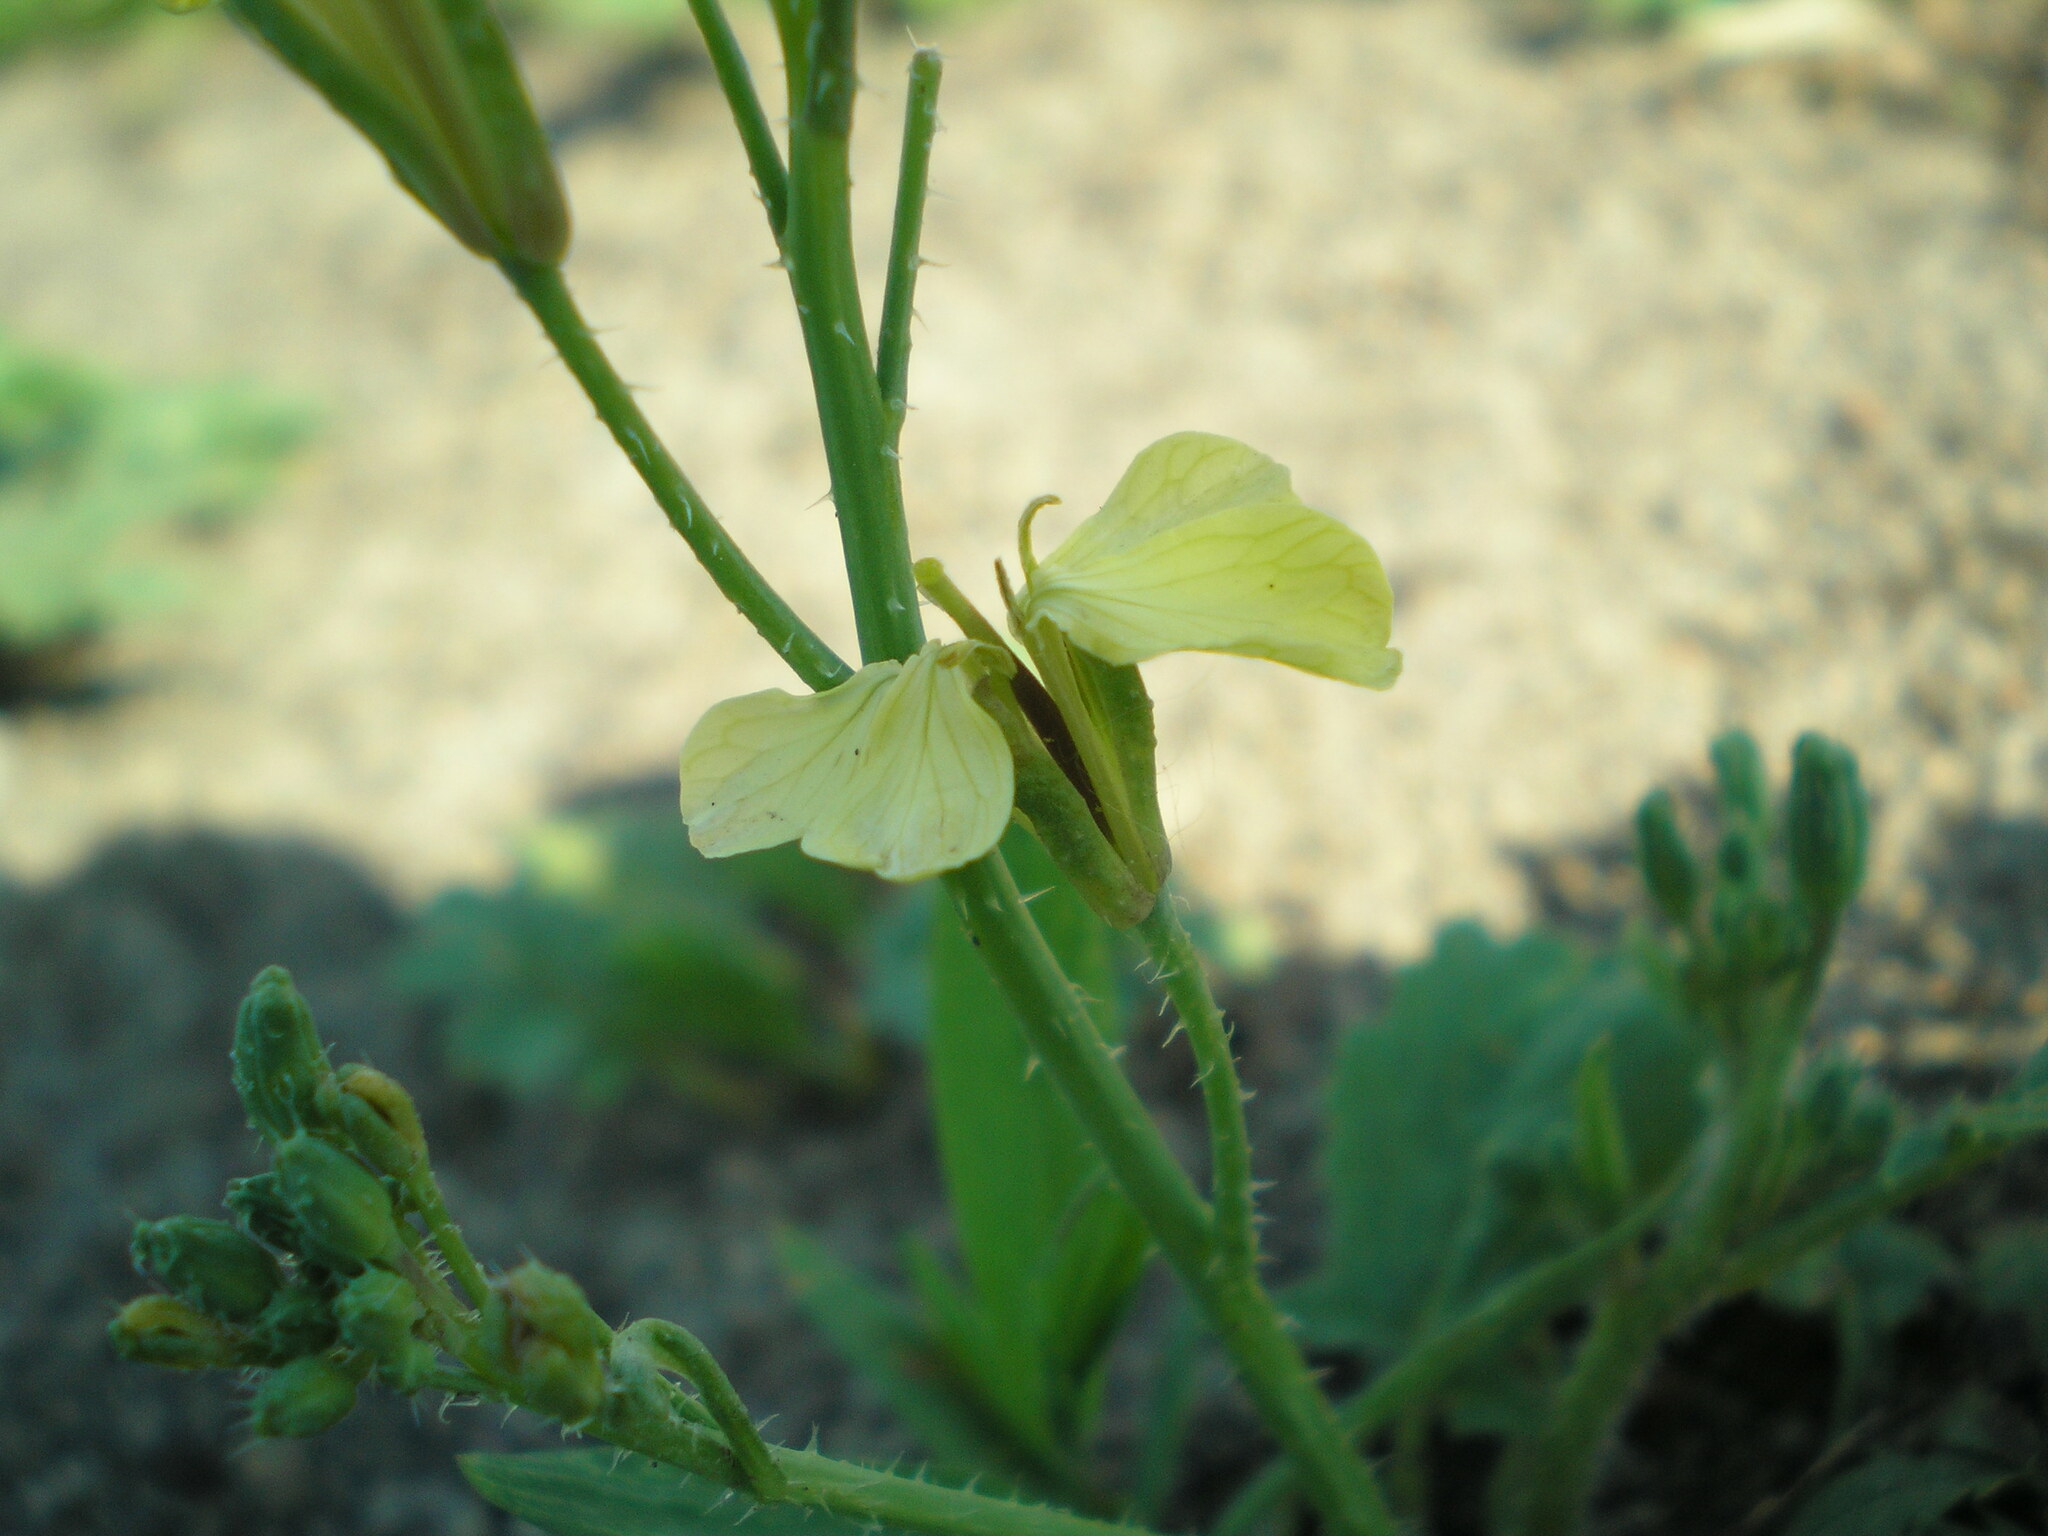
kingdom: Plantae
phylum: Tracheophyta
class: Magnoliopsida
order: Brassicales
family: Brassicaceae
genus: Raphanus
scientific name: Raphanus raphanistrum
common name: Wild radish
